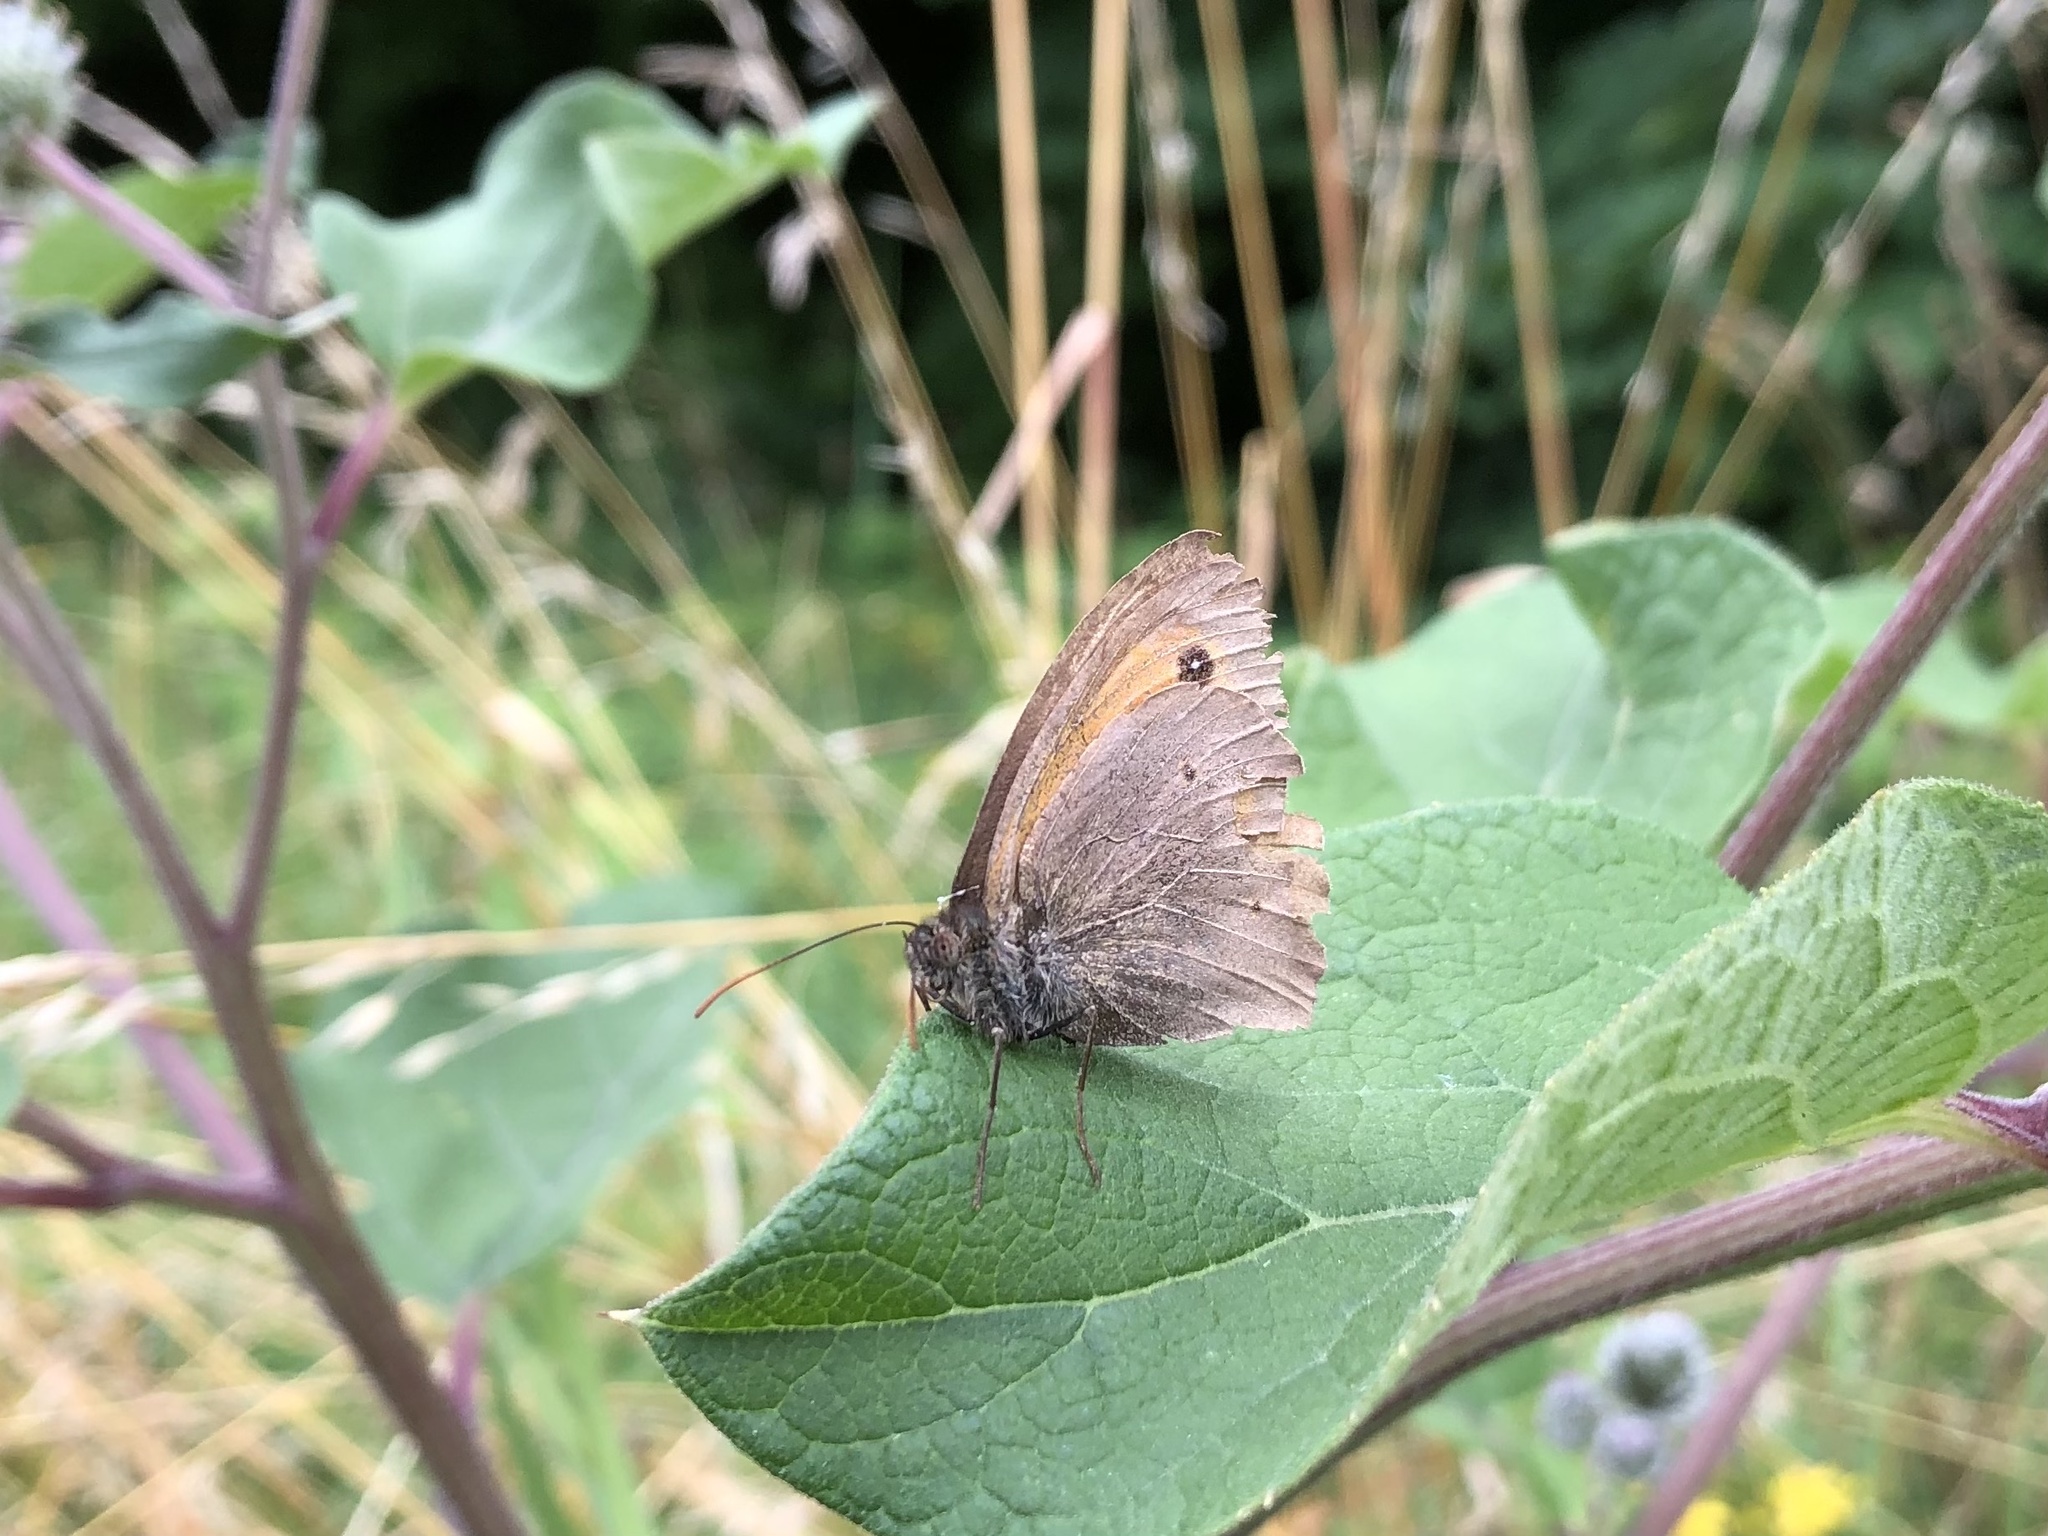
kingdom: Animalia
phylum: Arthropoda
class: Insecta
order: Lepidoptera
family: Nymphalidae
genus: Maniola
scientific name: Maniola jurtina
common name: Meadow brown
